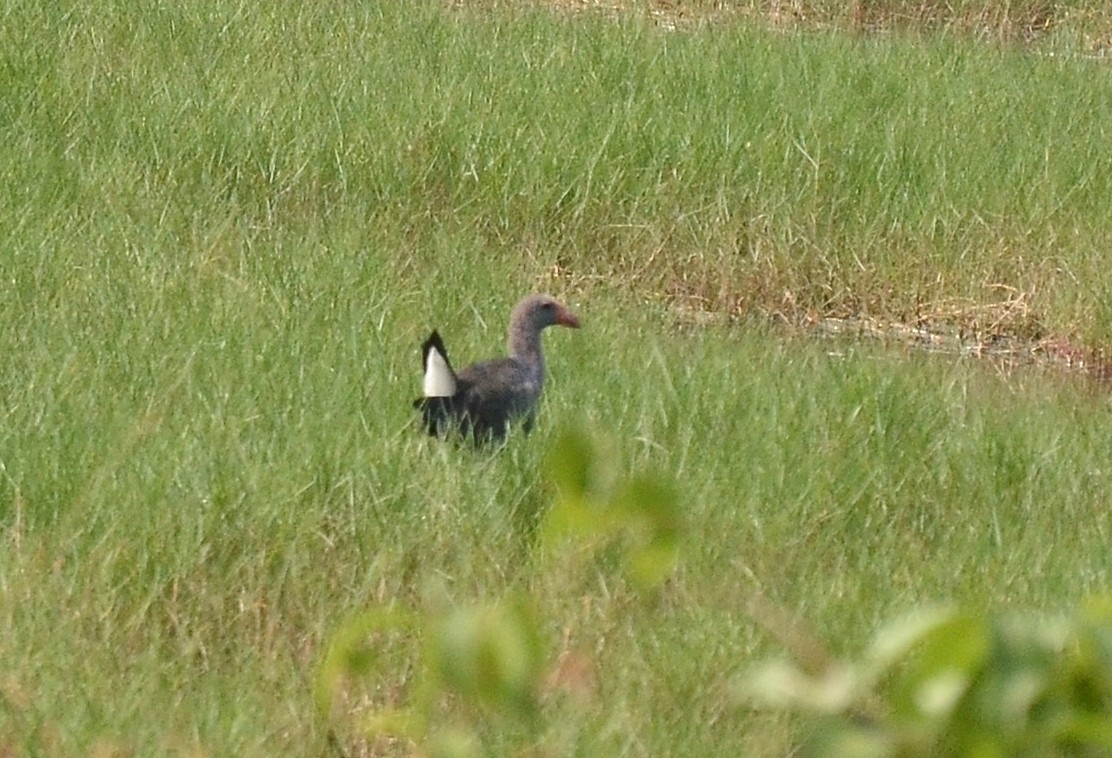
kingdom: Animalia
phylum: Chordata
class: Aves
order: Gruiformes
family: Rallidae
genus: Porphyrio
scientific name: Porphyrio porphyrio
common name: Purple swamphen
